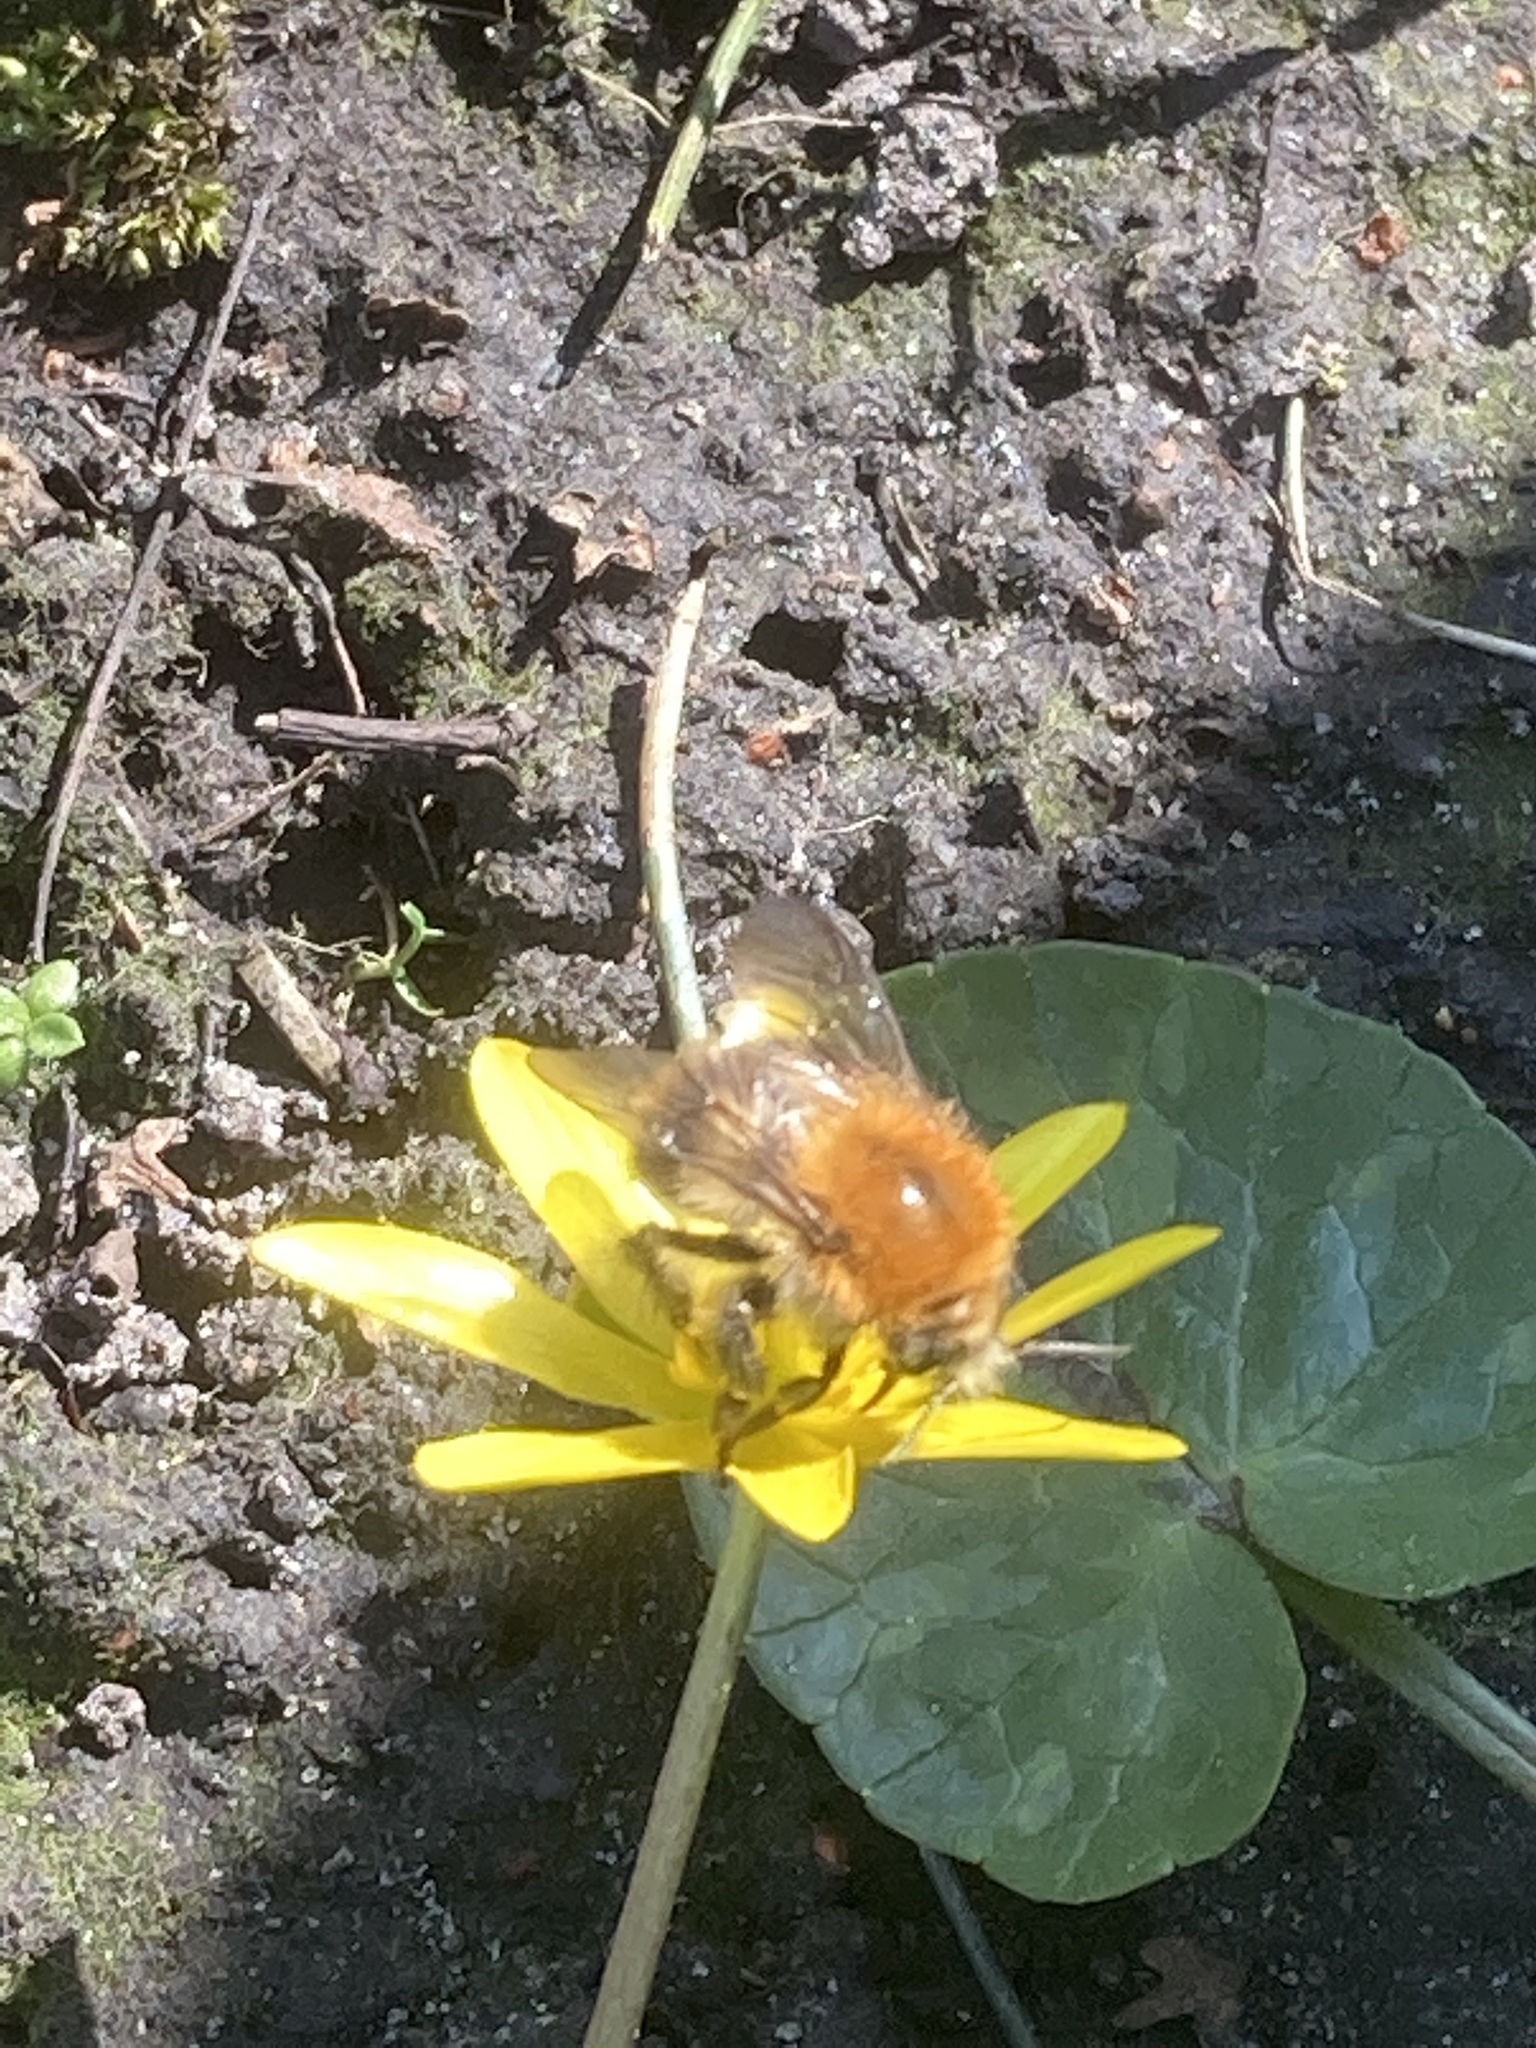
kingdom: Animalia
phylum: Arthropoda
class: Insecta
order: Hymenoptera
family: Apidae
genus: Bombus
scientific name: Bombus pascuorum
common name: Common carder bee
